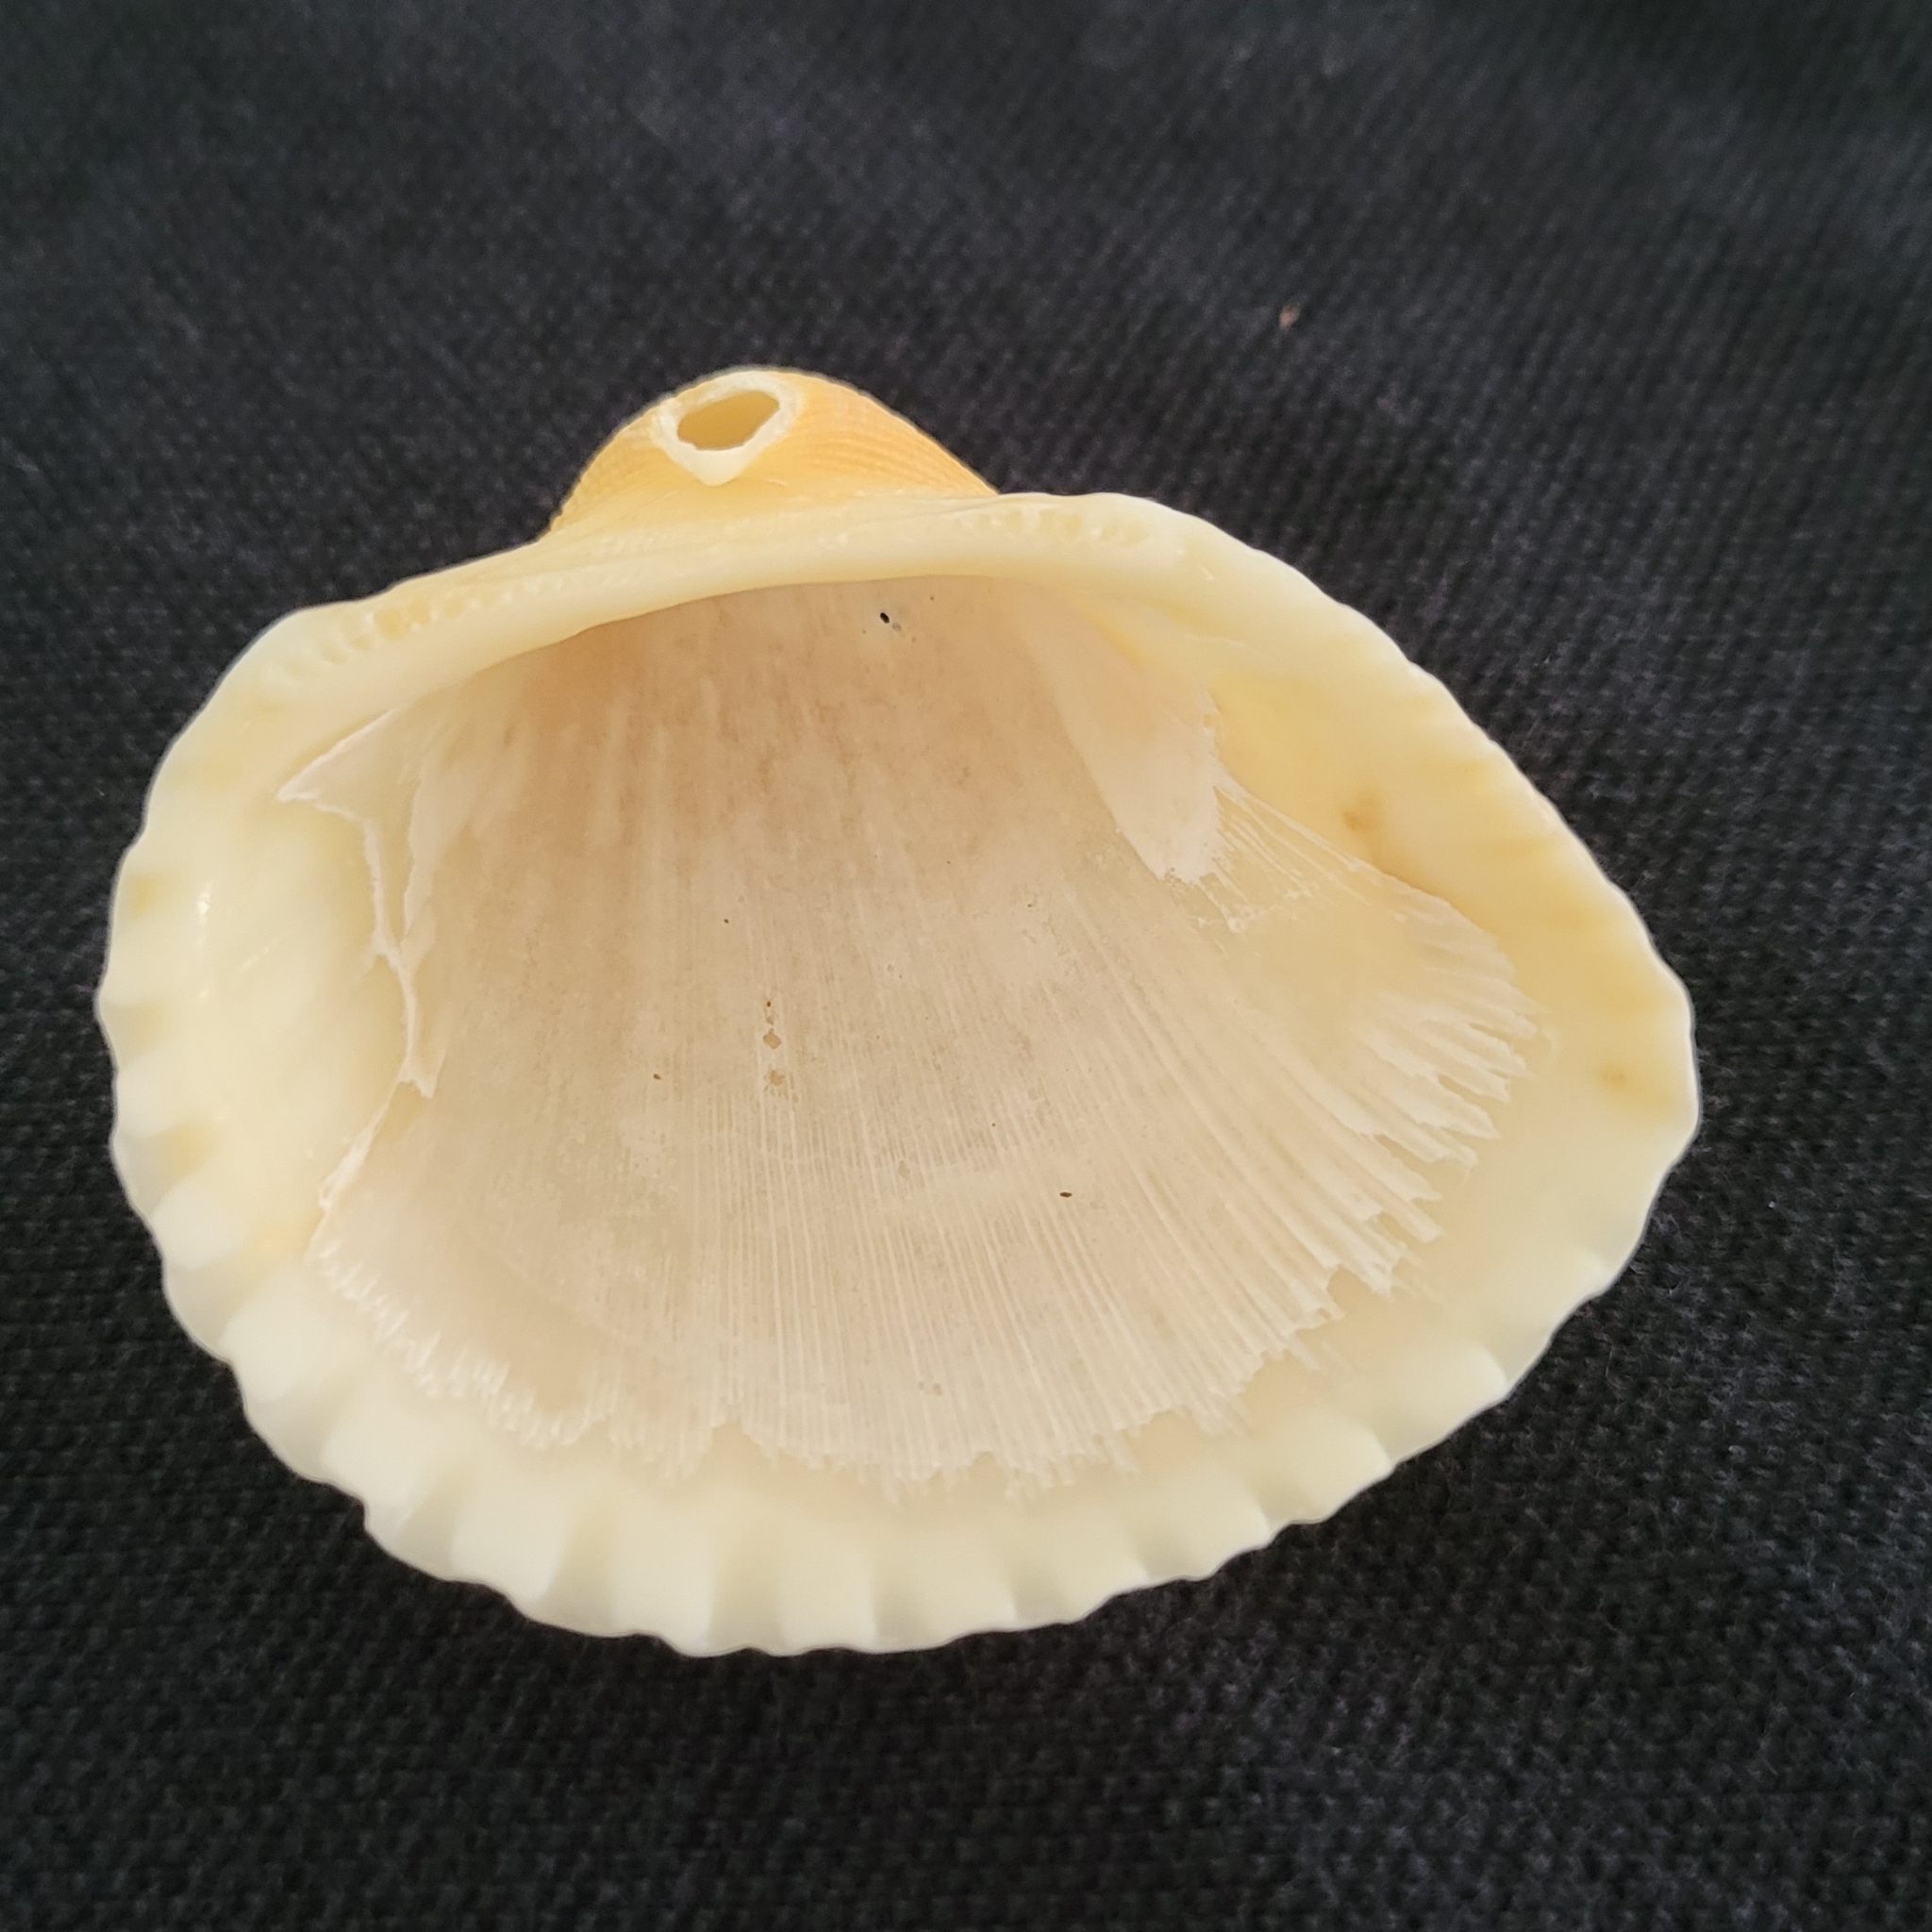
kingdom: Animalia
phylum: Mollusca
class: Bivalvia
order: Arcida
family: Arcidae
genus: Anadara
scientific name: Anadara brasiliana
